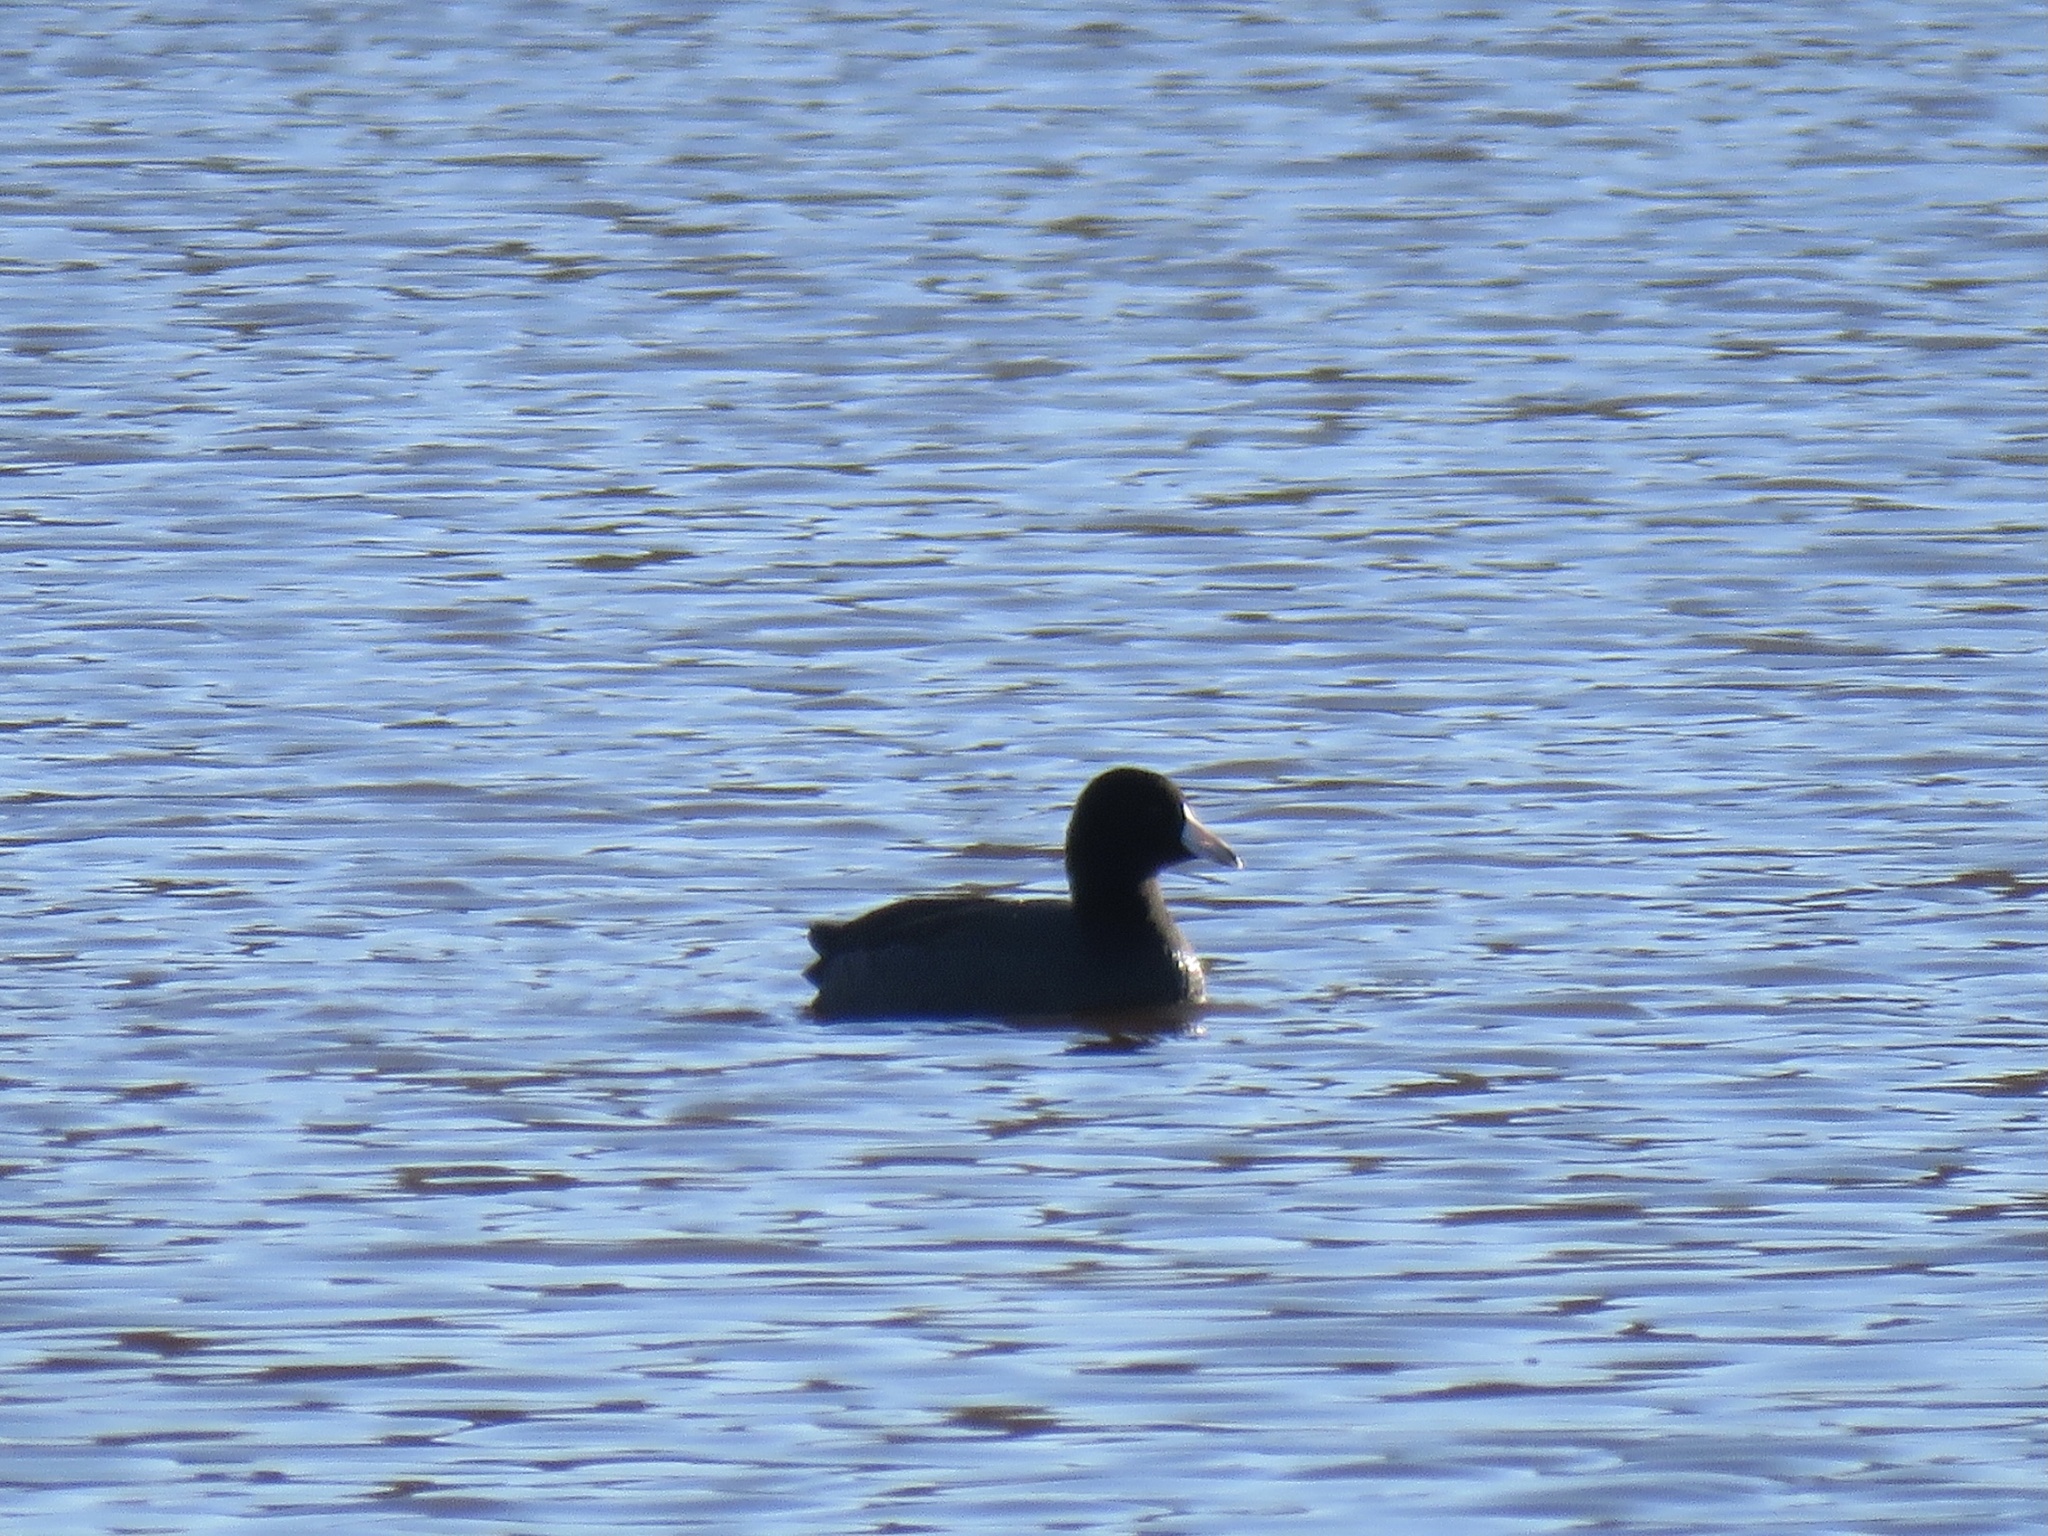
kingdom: Animalia
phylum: Chordata
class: Aves
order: Gruiformes
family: Rallidae
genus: Fulica
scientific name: Fulica americana
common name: American coot
